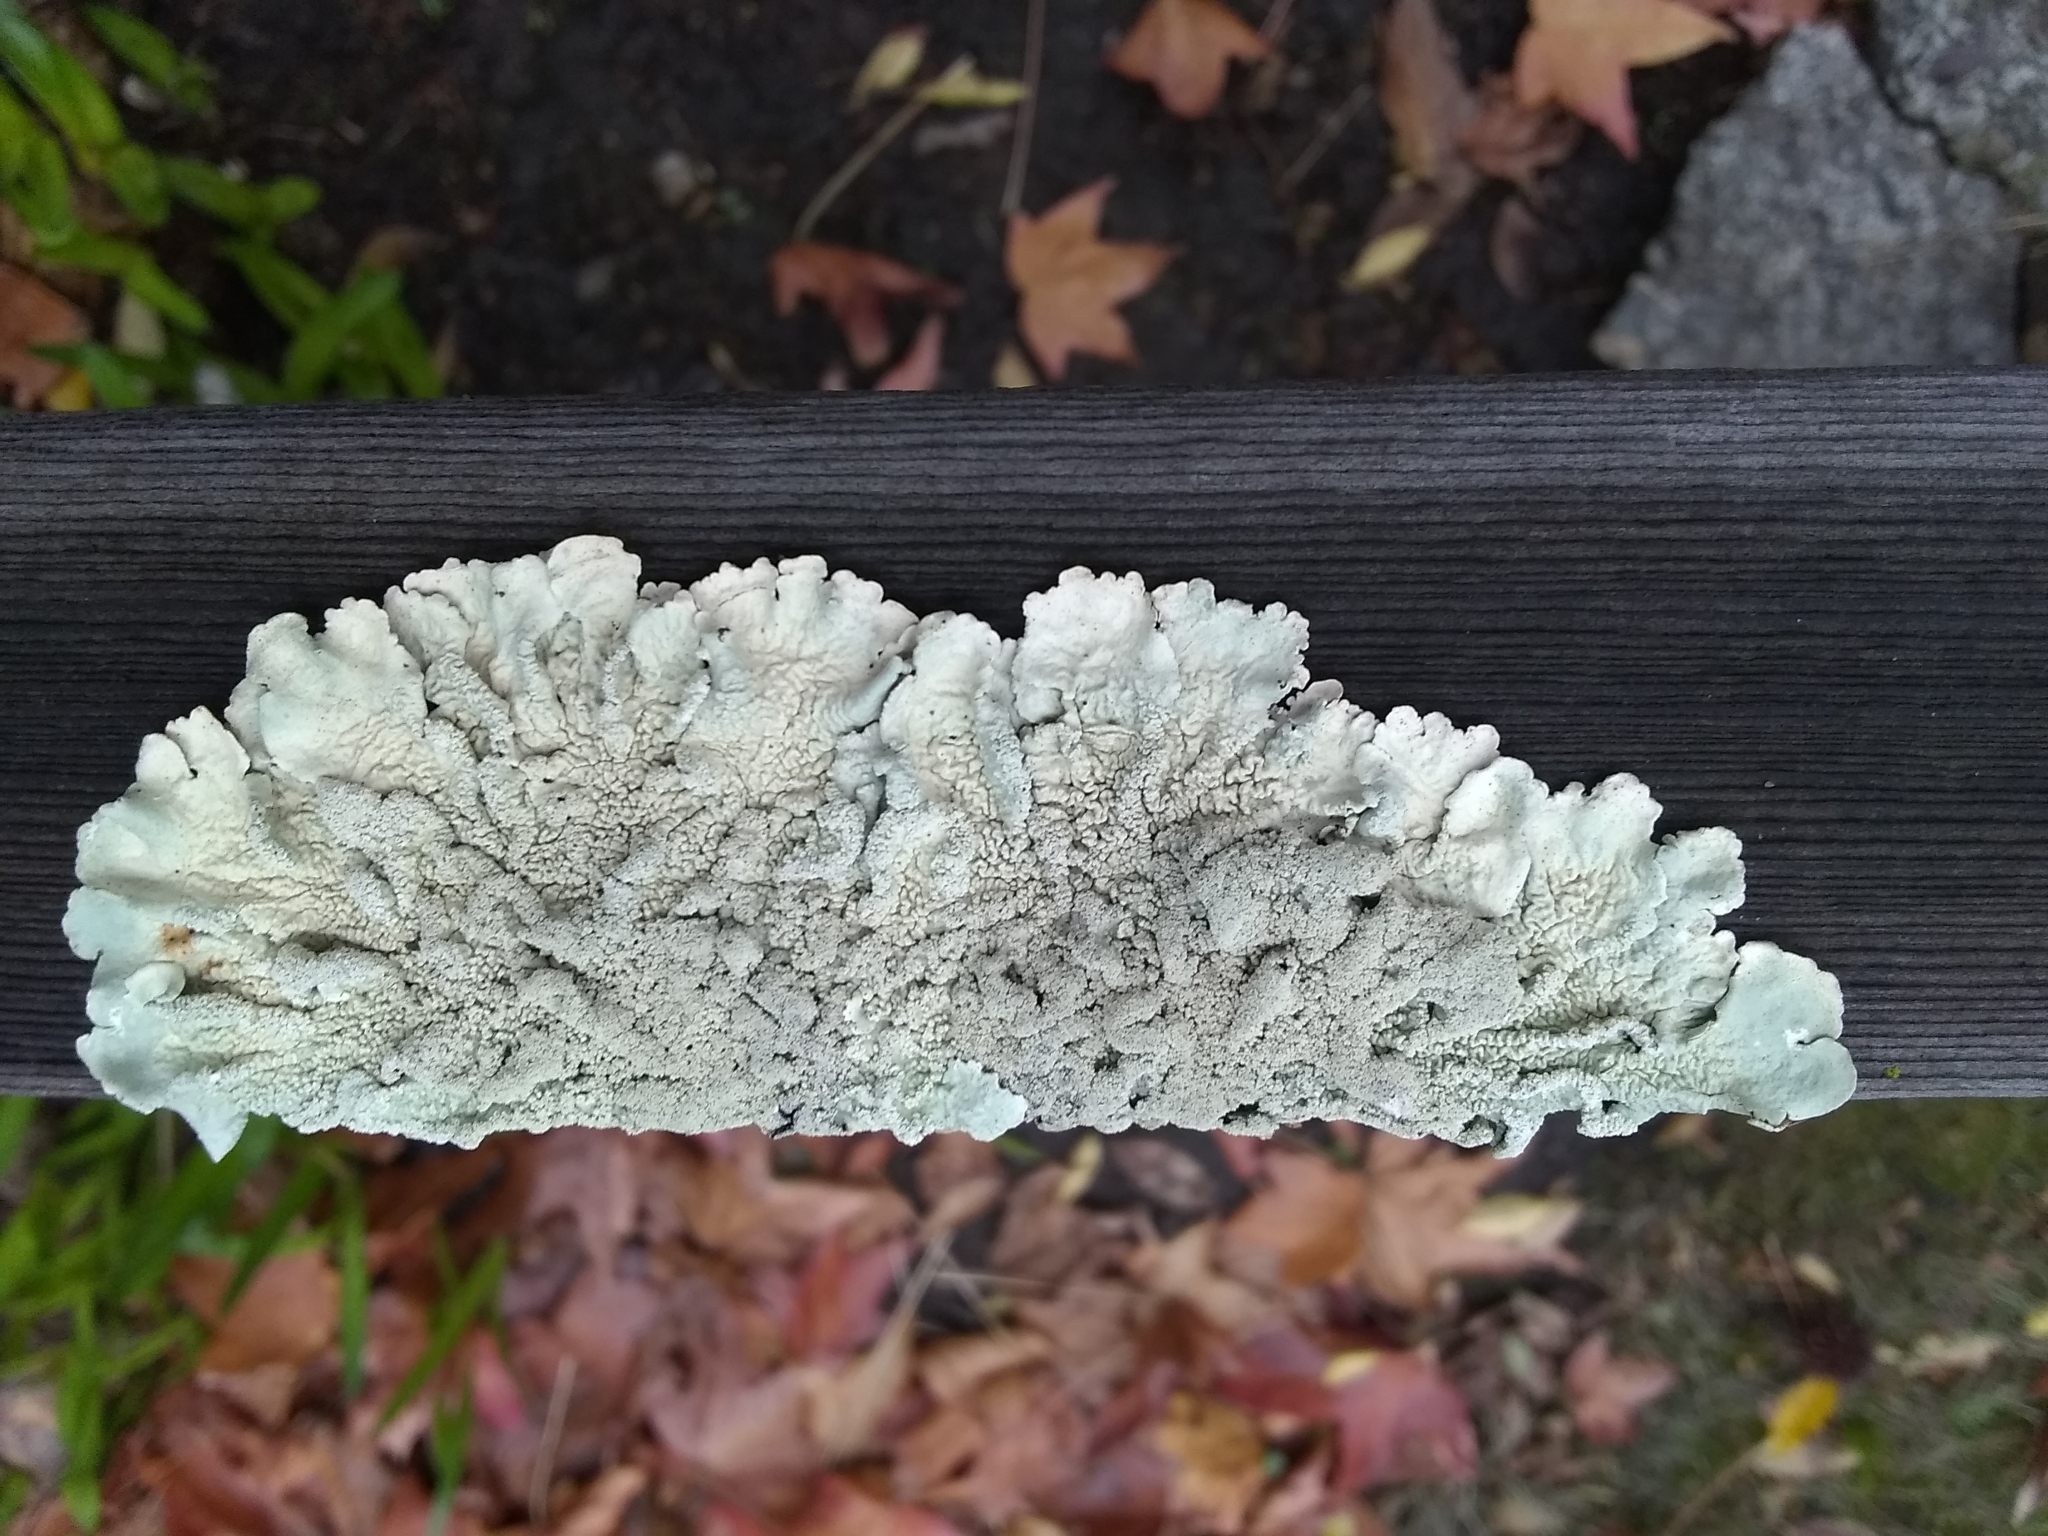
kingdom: Fungi
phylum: Ascomycota
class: Lecanoromycetes
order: Lecanorales
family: Parmeliaceae
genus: Flavoparmelia
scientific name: Flavoparmelia caperata
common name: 40-mile per hour lichen
